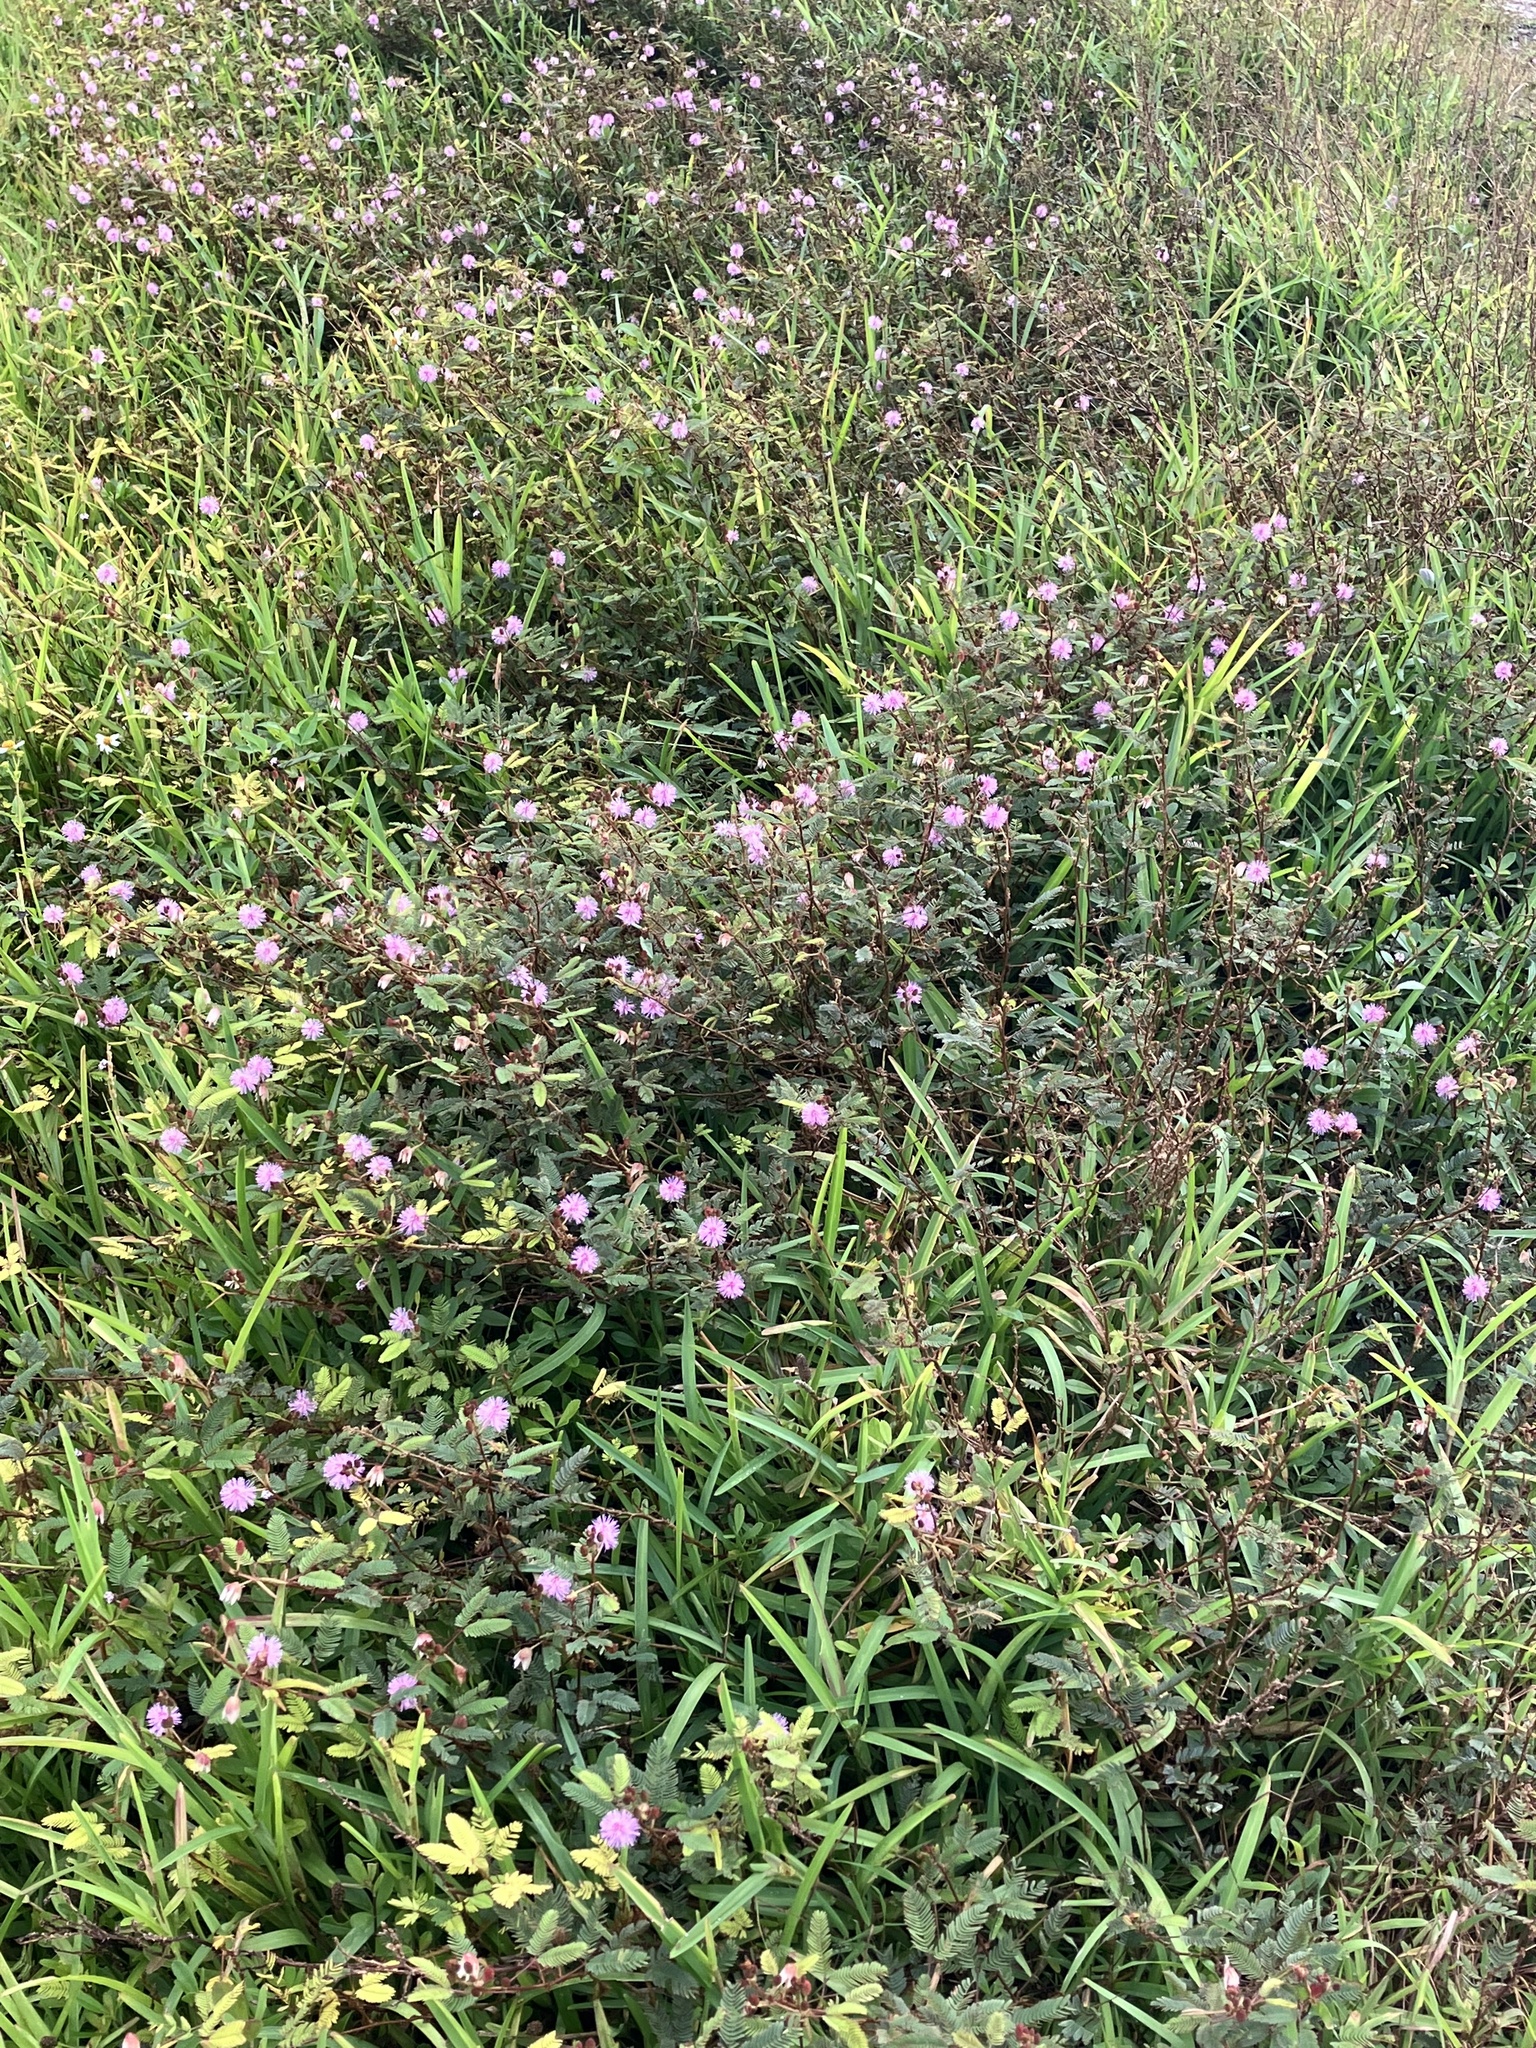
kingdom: Plantae
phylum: Tracheophyta
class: Magnoliopsida
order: Fabales
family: Fabaceae
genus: Mimosa
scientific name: Mimosa pudica
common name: Sensitive plant
